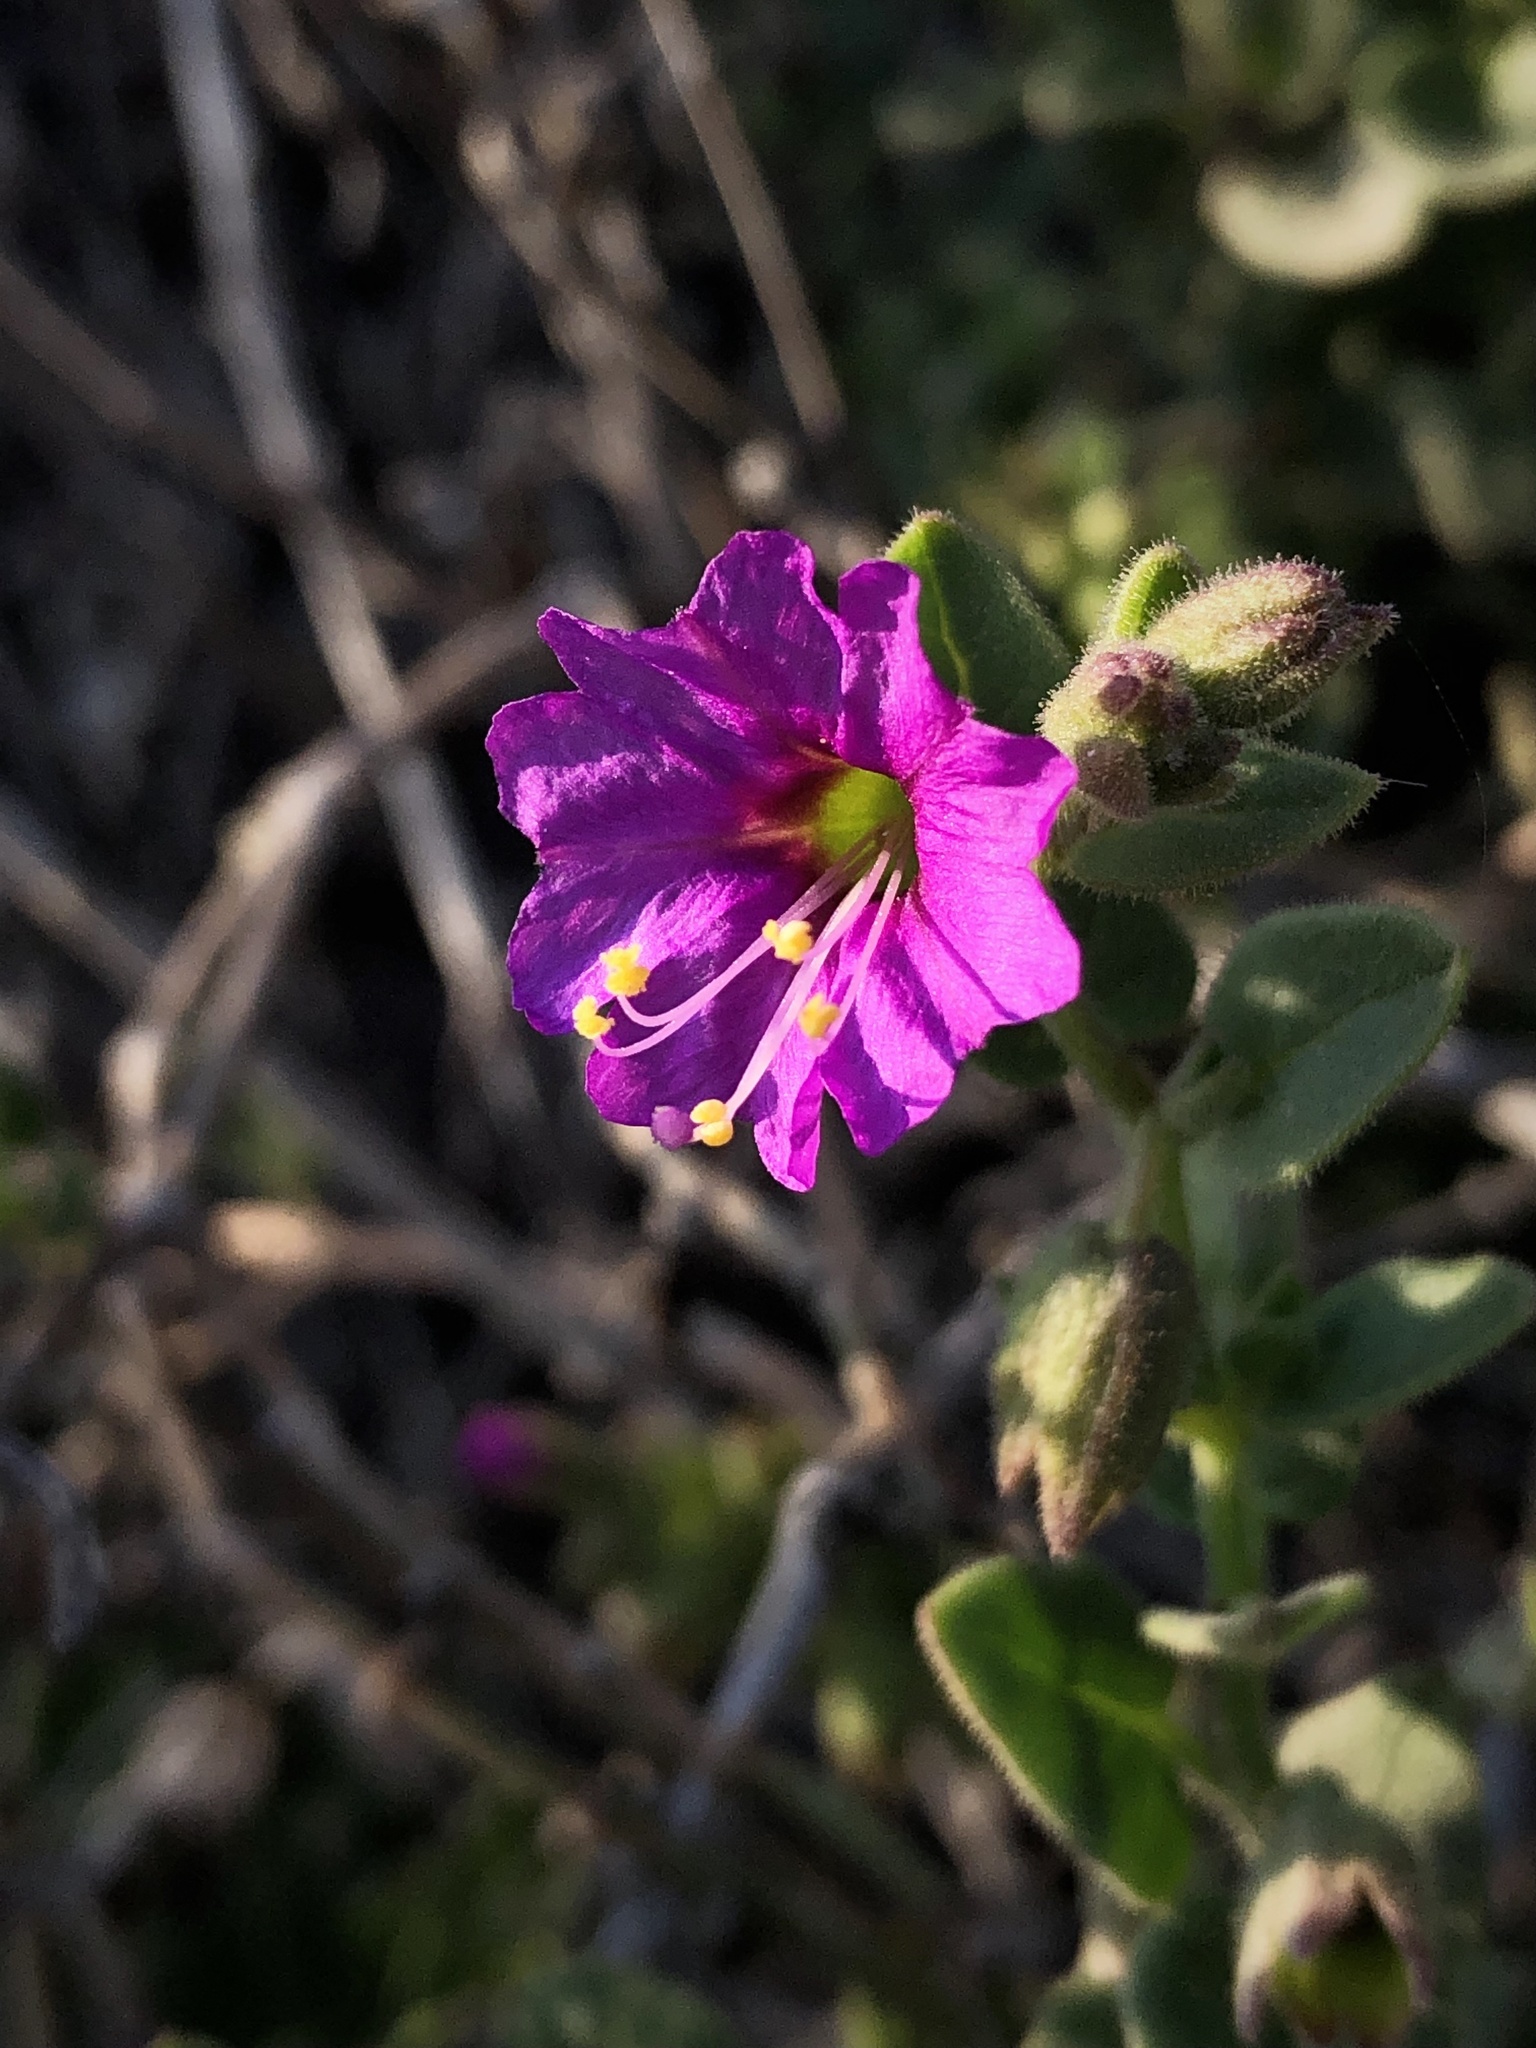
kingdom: Plantae
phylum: Tracheophyta
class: Magnoliopsida
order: Caryophyllales
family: Nyctaginaceae
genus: Mirabilis
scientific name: Mirabilis laevis
